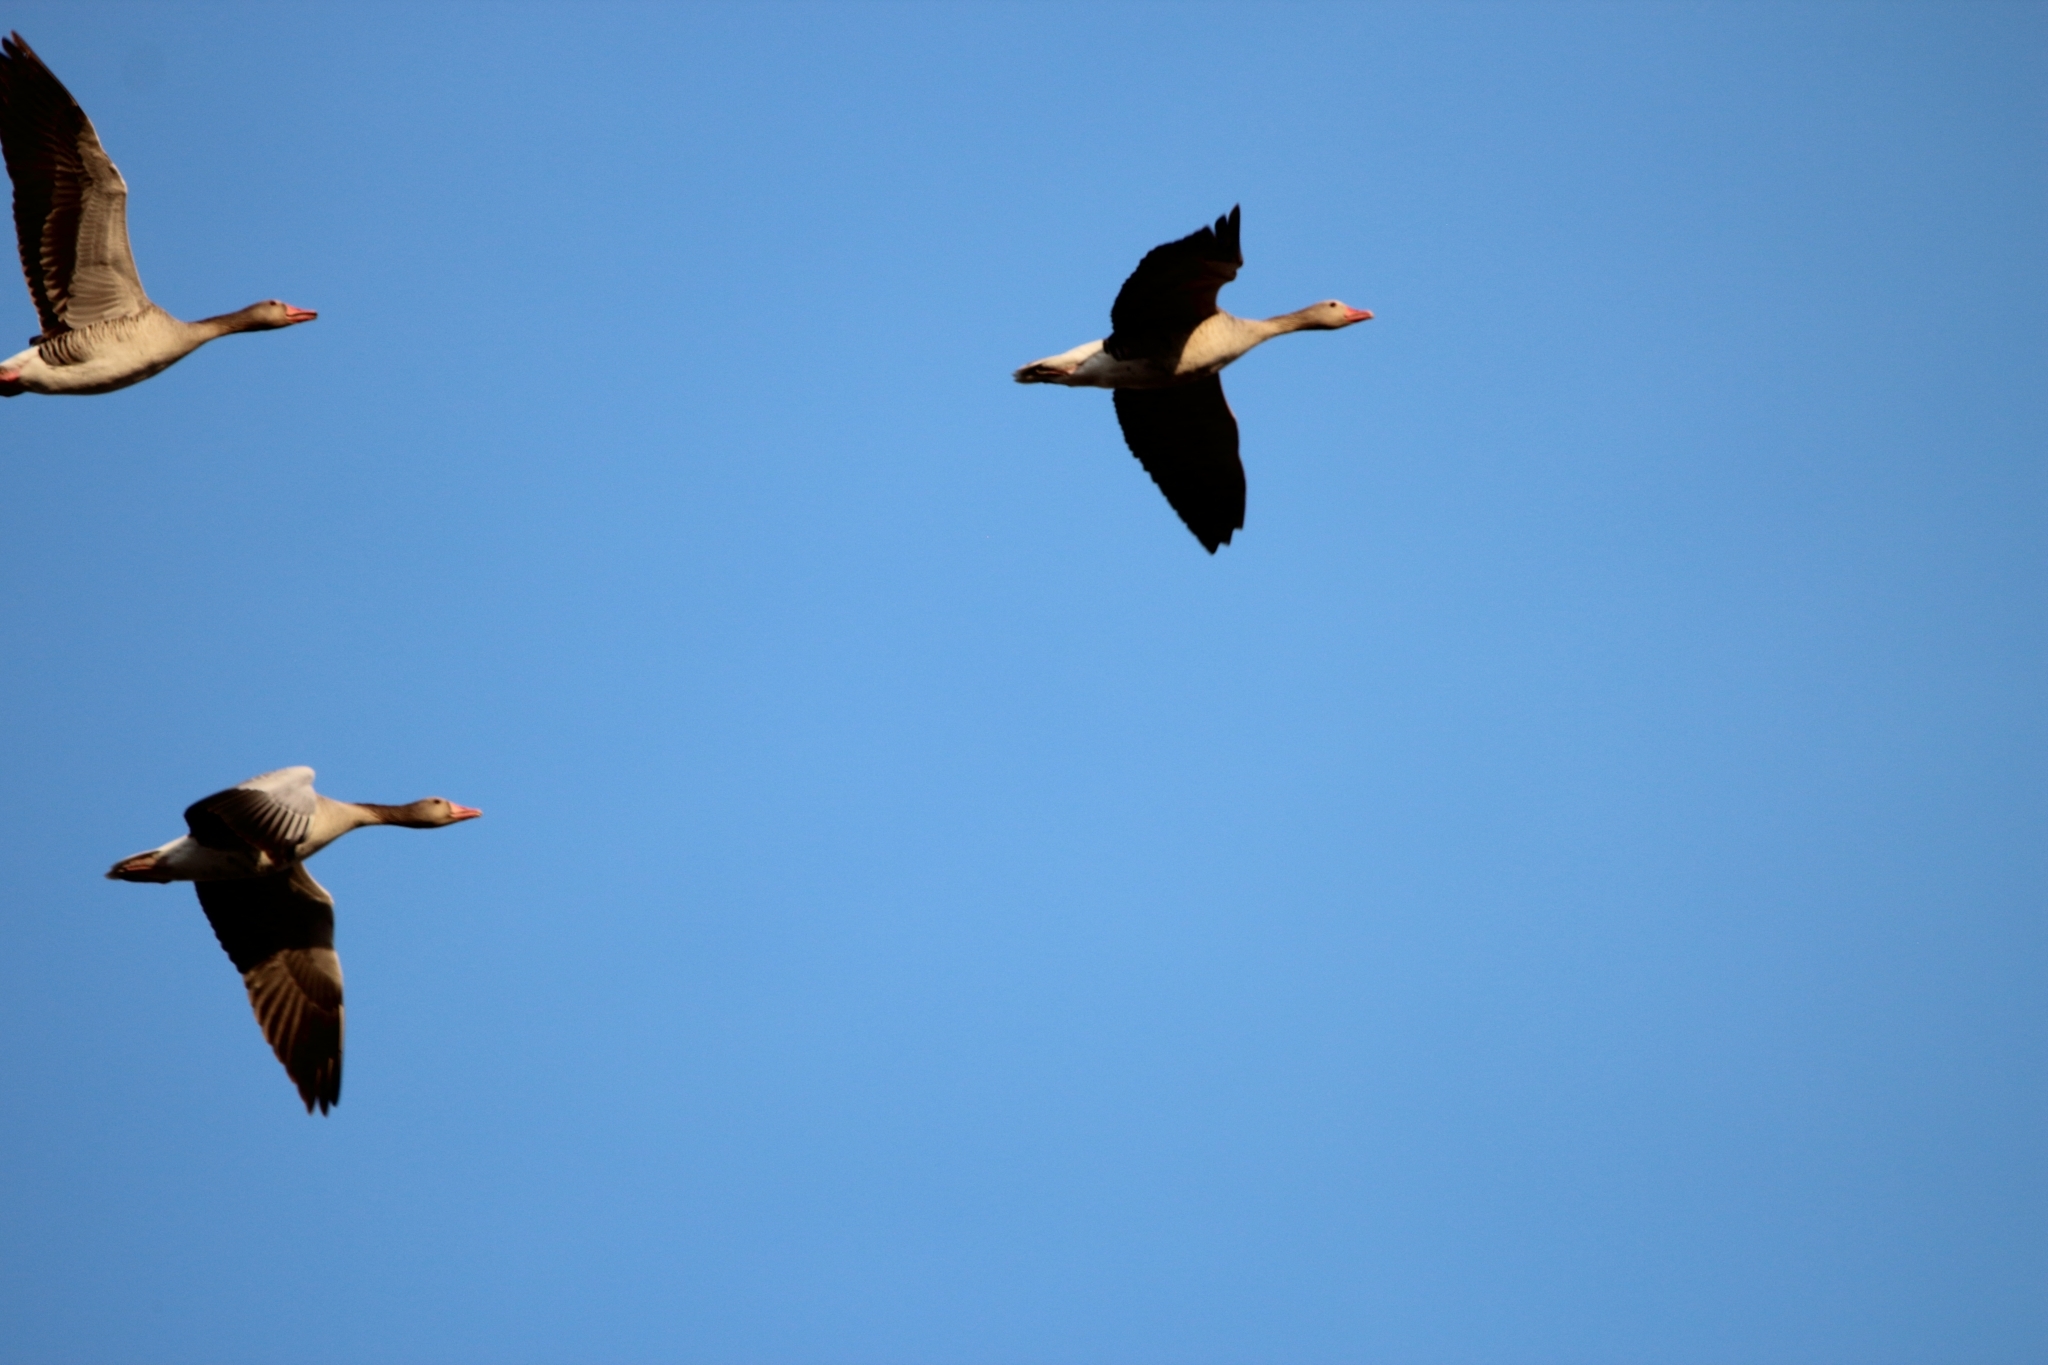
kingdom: Animalia
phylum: Chordata
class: Aves
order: Anseriformes
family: Anatidae
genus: Anser
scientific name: Anser anser
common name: Greylag goose
